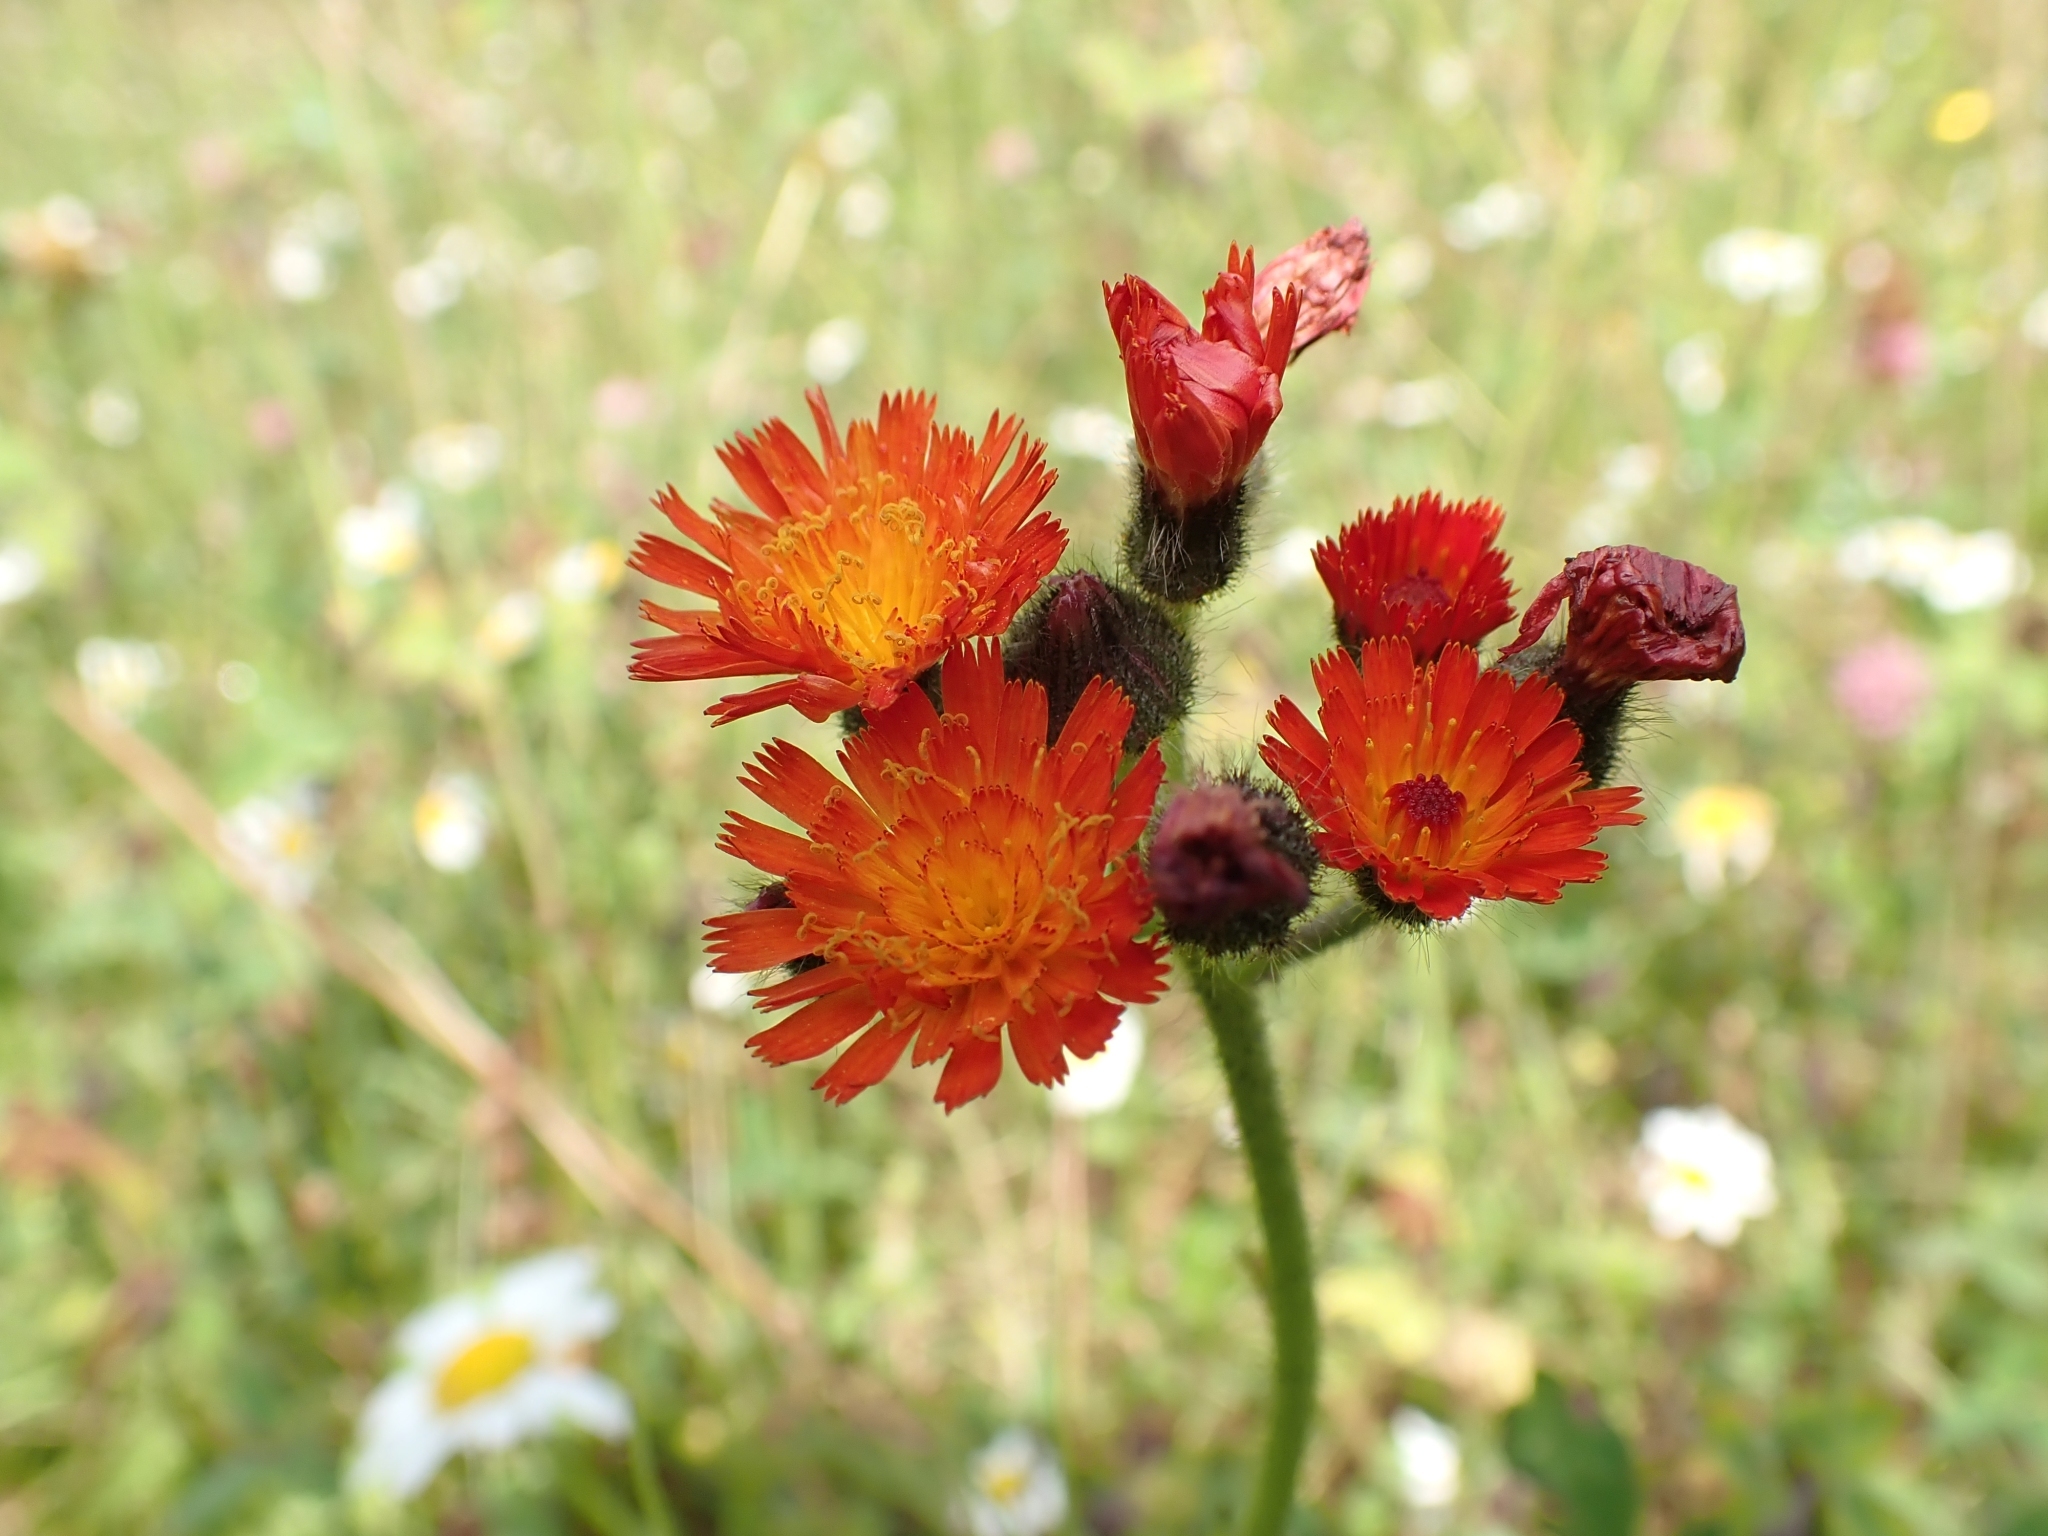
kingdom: Plantae
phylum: Tracheophyta
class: Magnoliopsida
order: Asterales
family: Asteraceae
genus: Pilosella
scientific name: Pilosella aurantiaca
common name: Fox-and-cubs
